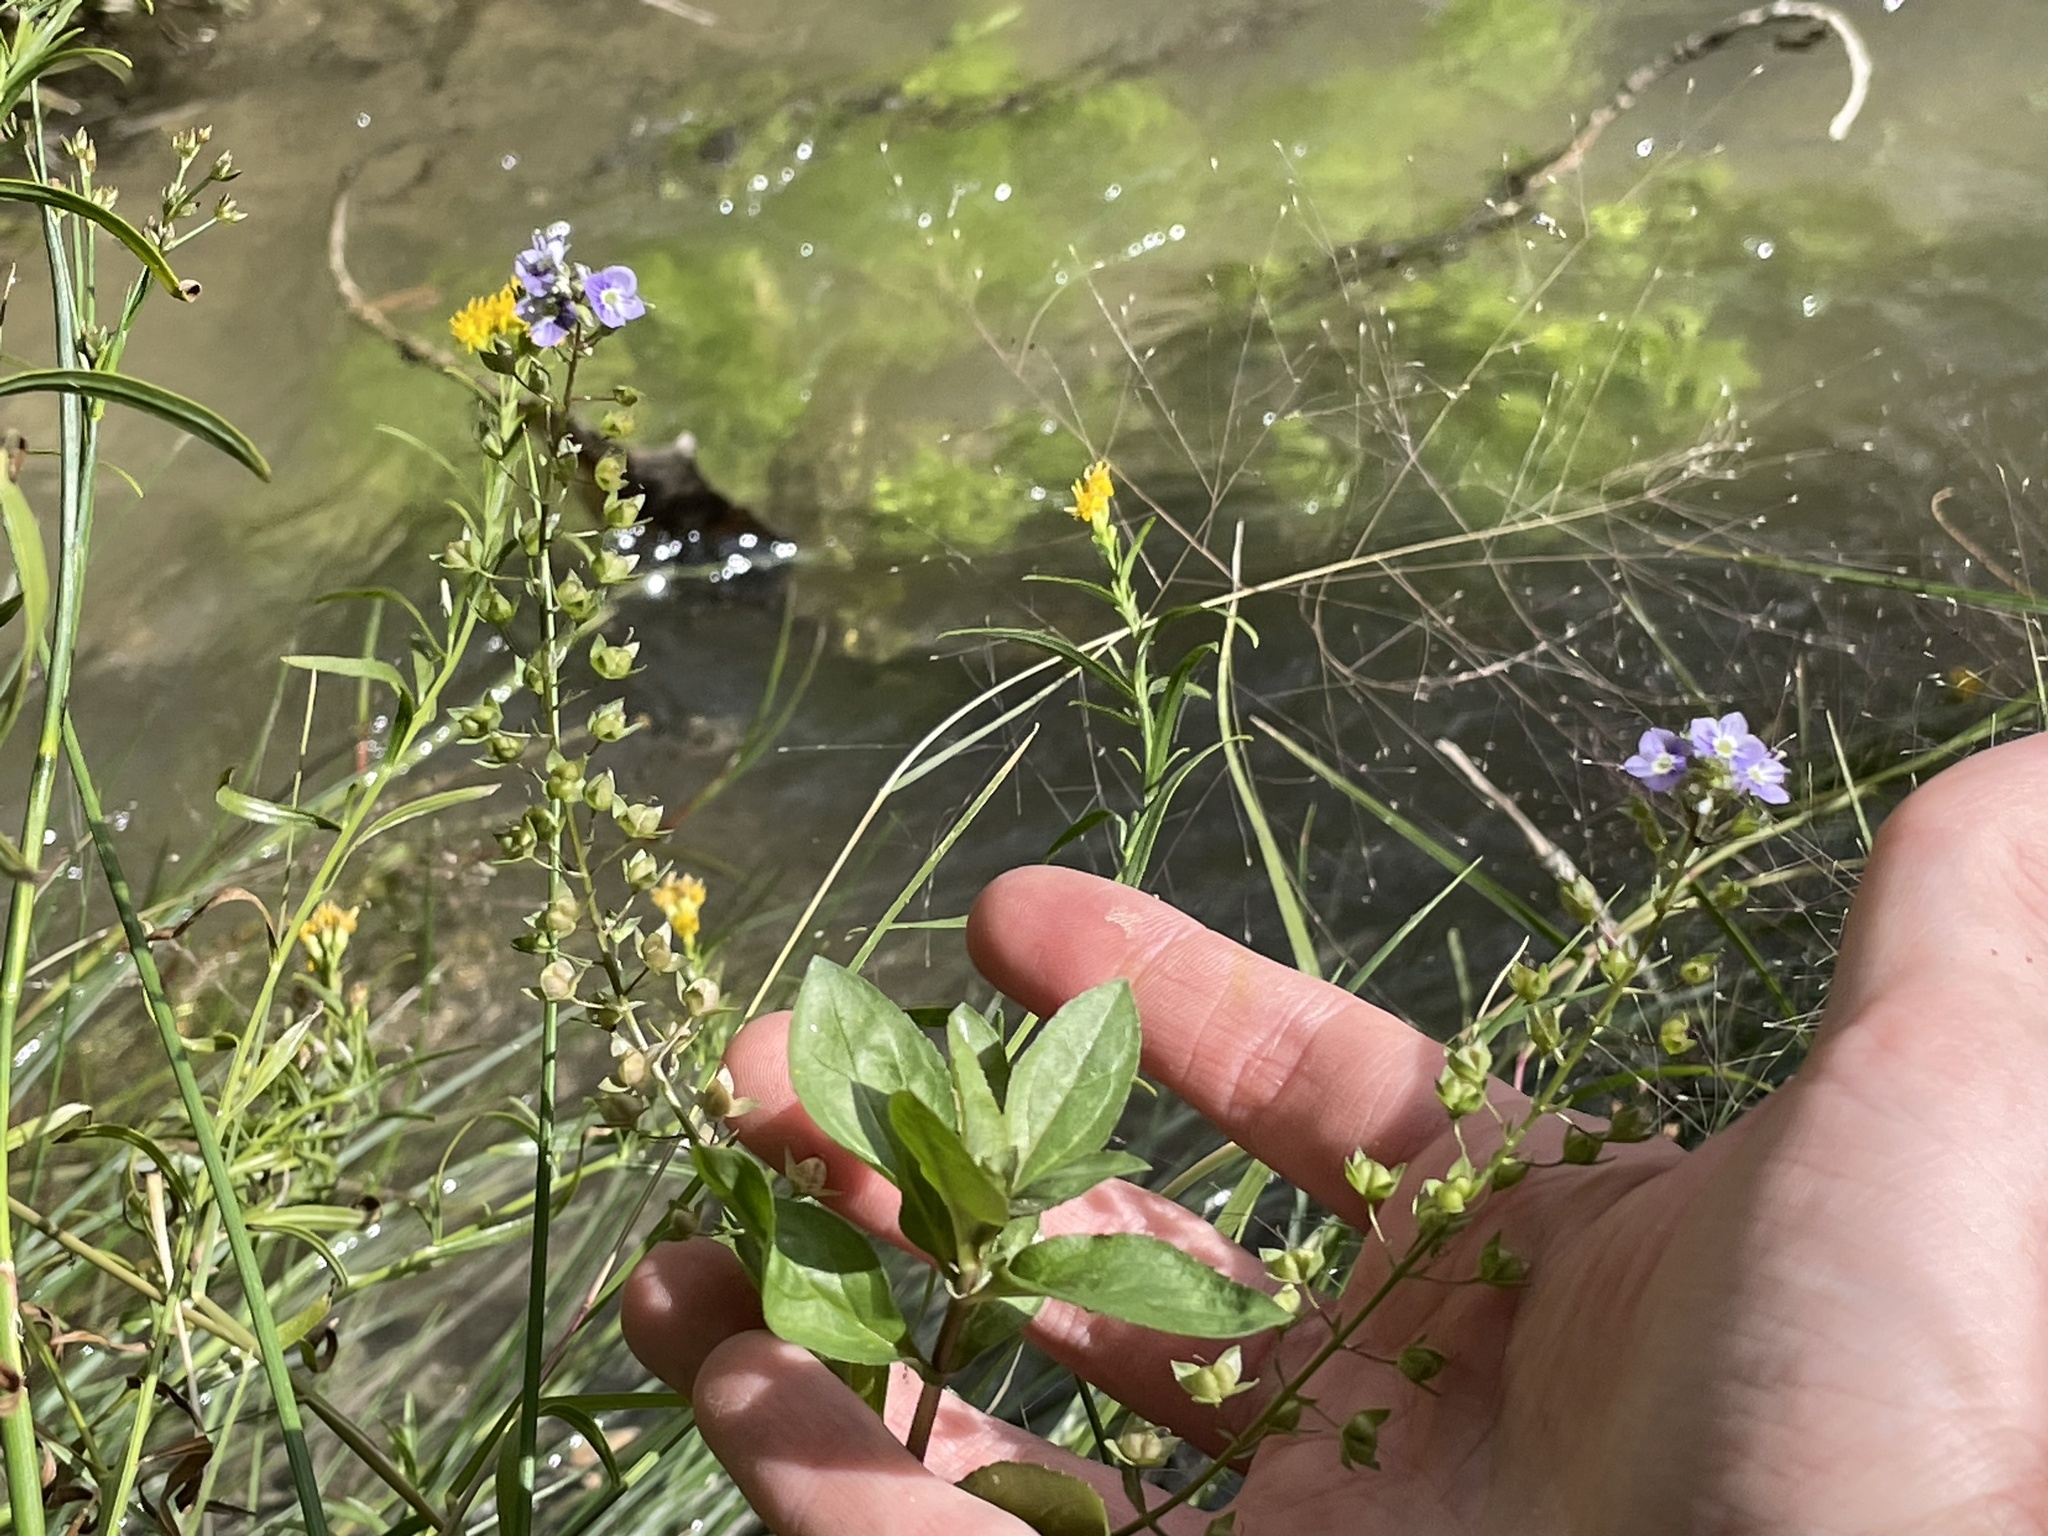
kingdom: Plantae
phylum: Tracheophyta
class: Magnoliopsida
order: Lamiales
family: Plantaginaceae
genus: Veronica
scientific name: Veronica anagallis-aquatica
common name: Water speedwell
